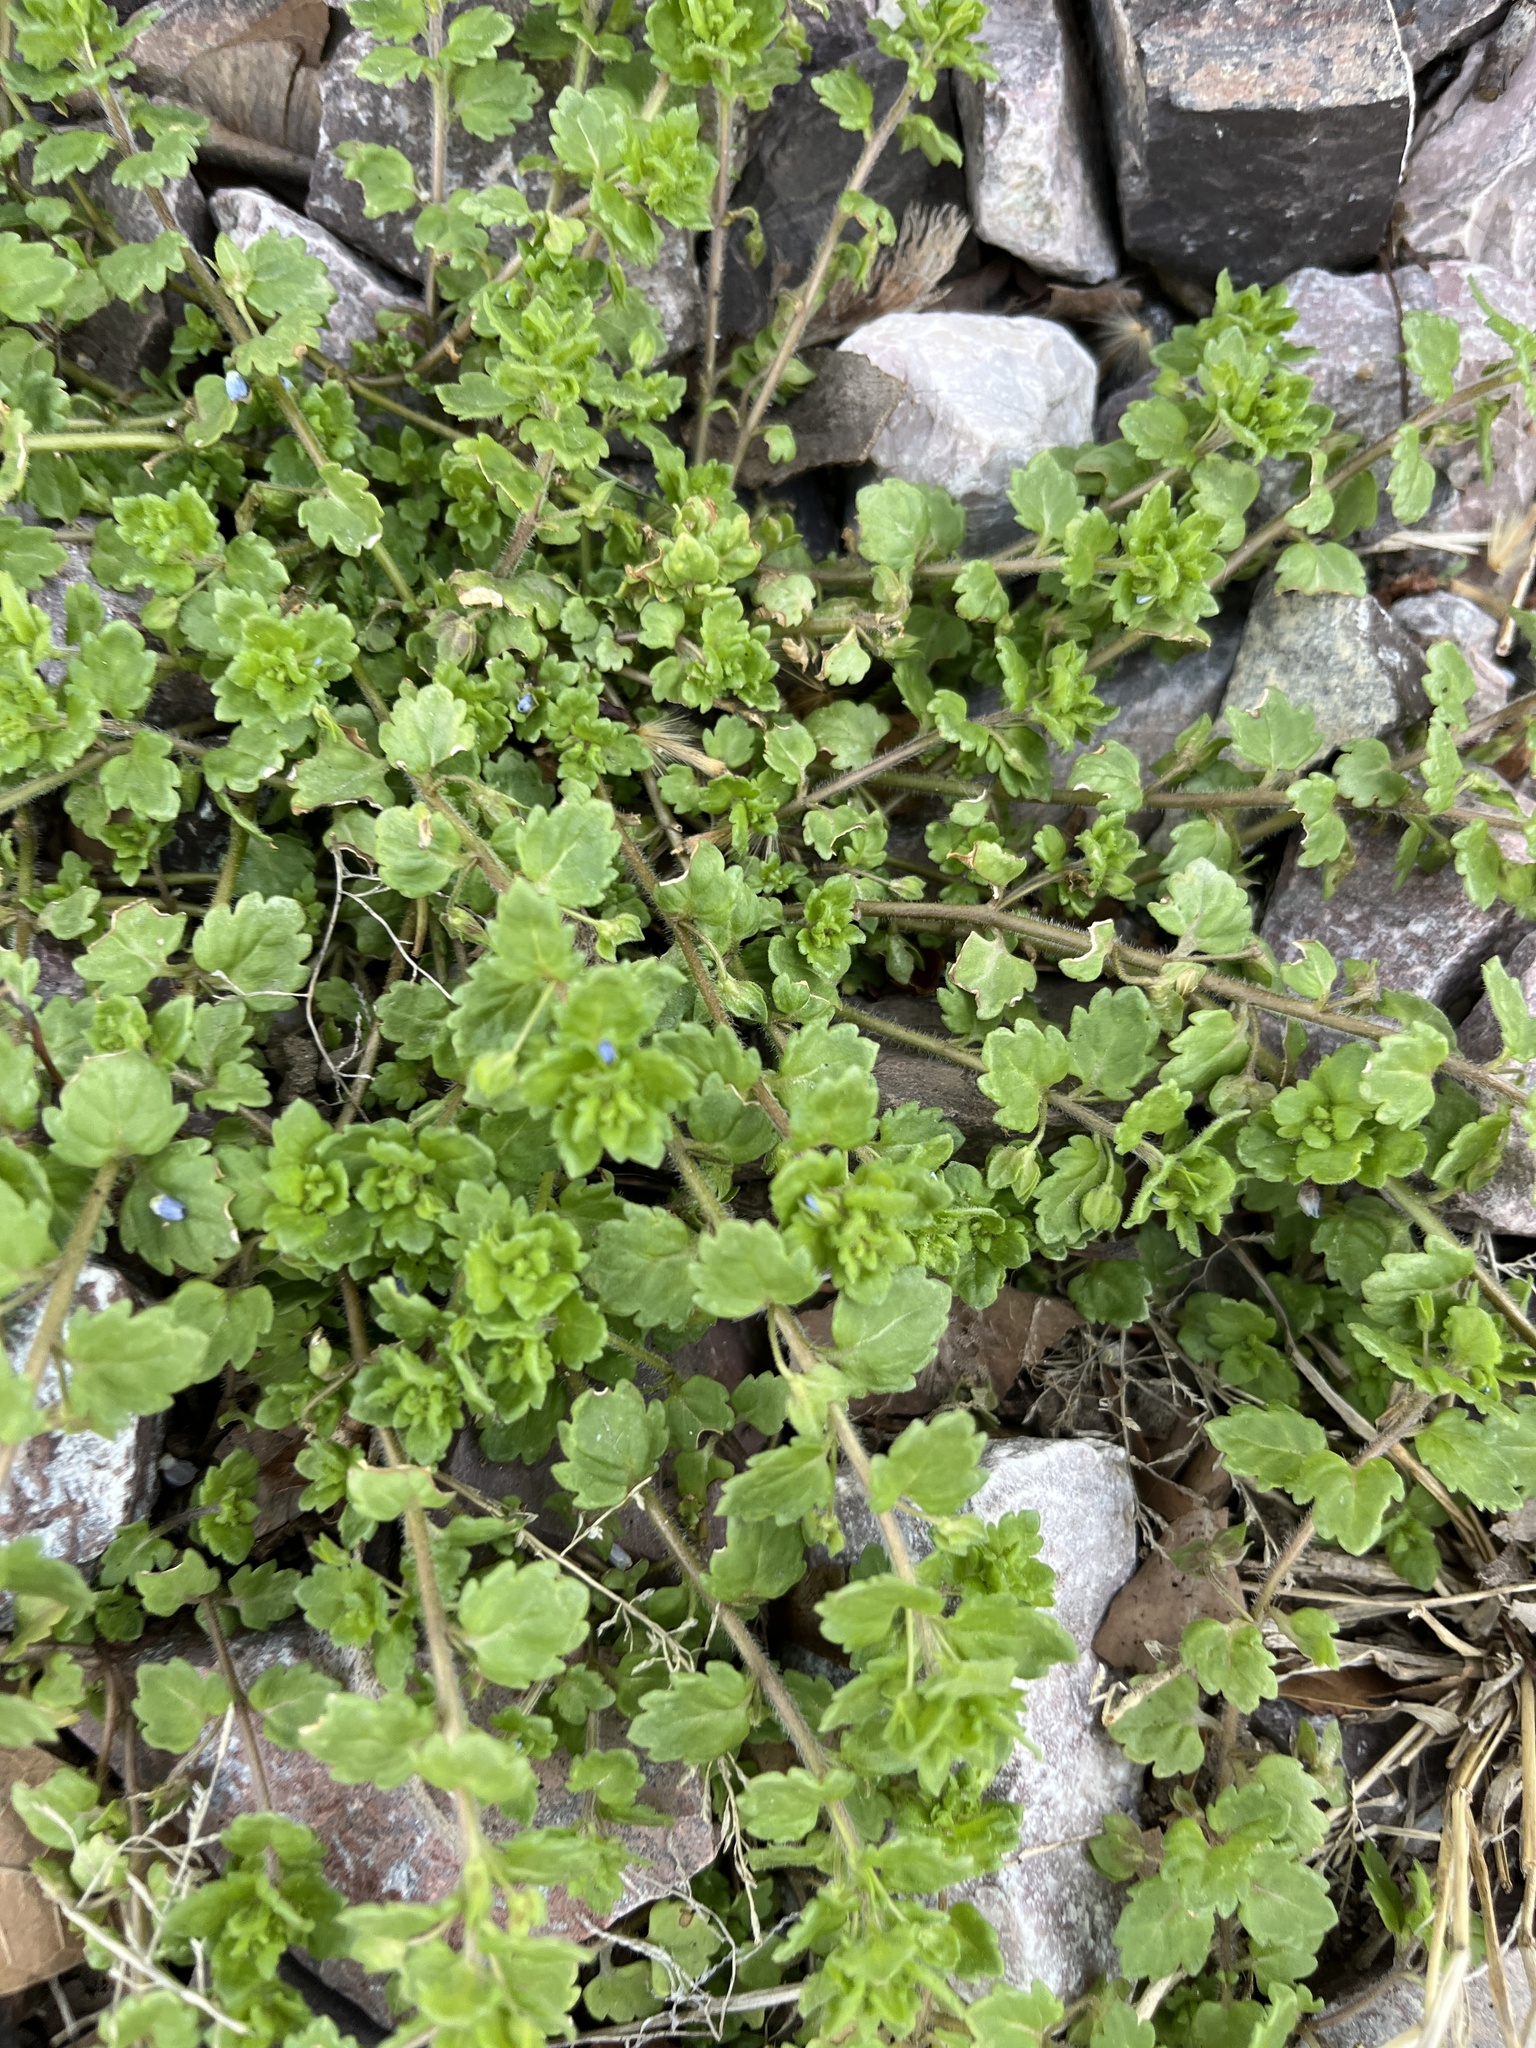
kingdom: Plantae
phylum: Tracheophyta
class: Magnoliopsida
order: Lamiales
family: Plantaginaceae
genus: Veronica
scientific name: Veronica polita
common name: Grey field-speedwell
